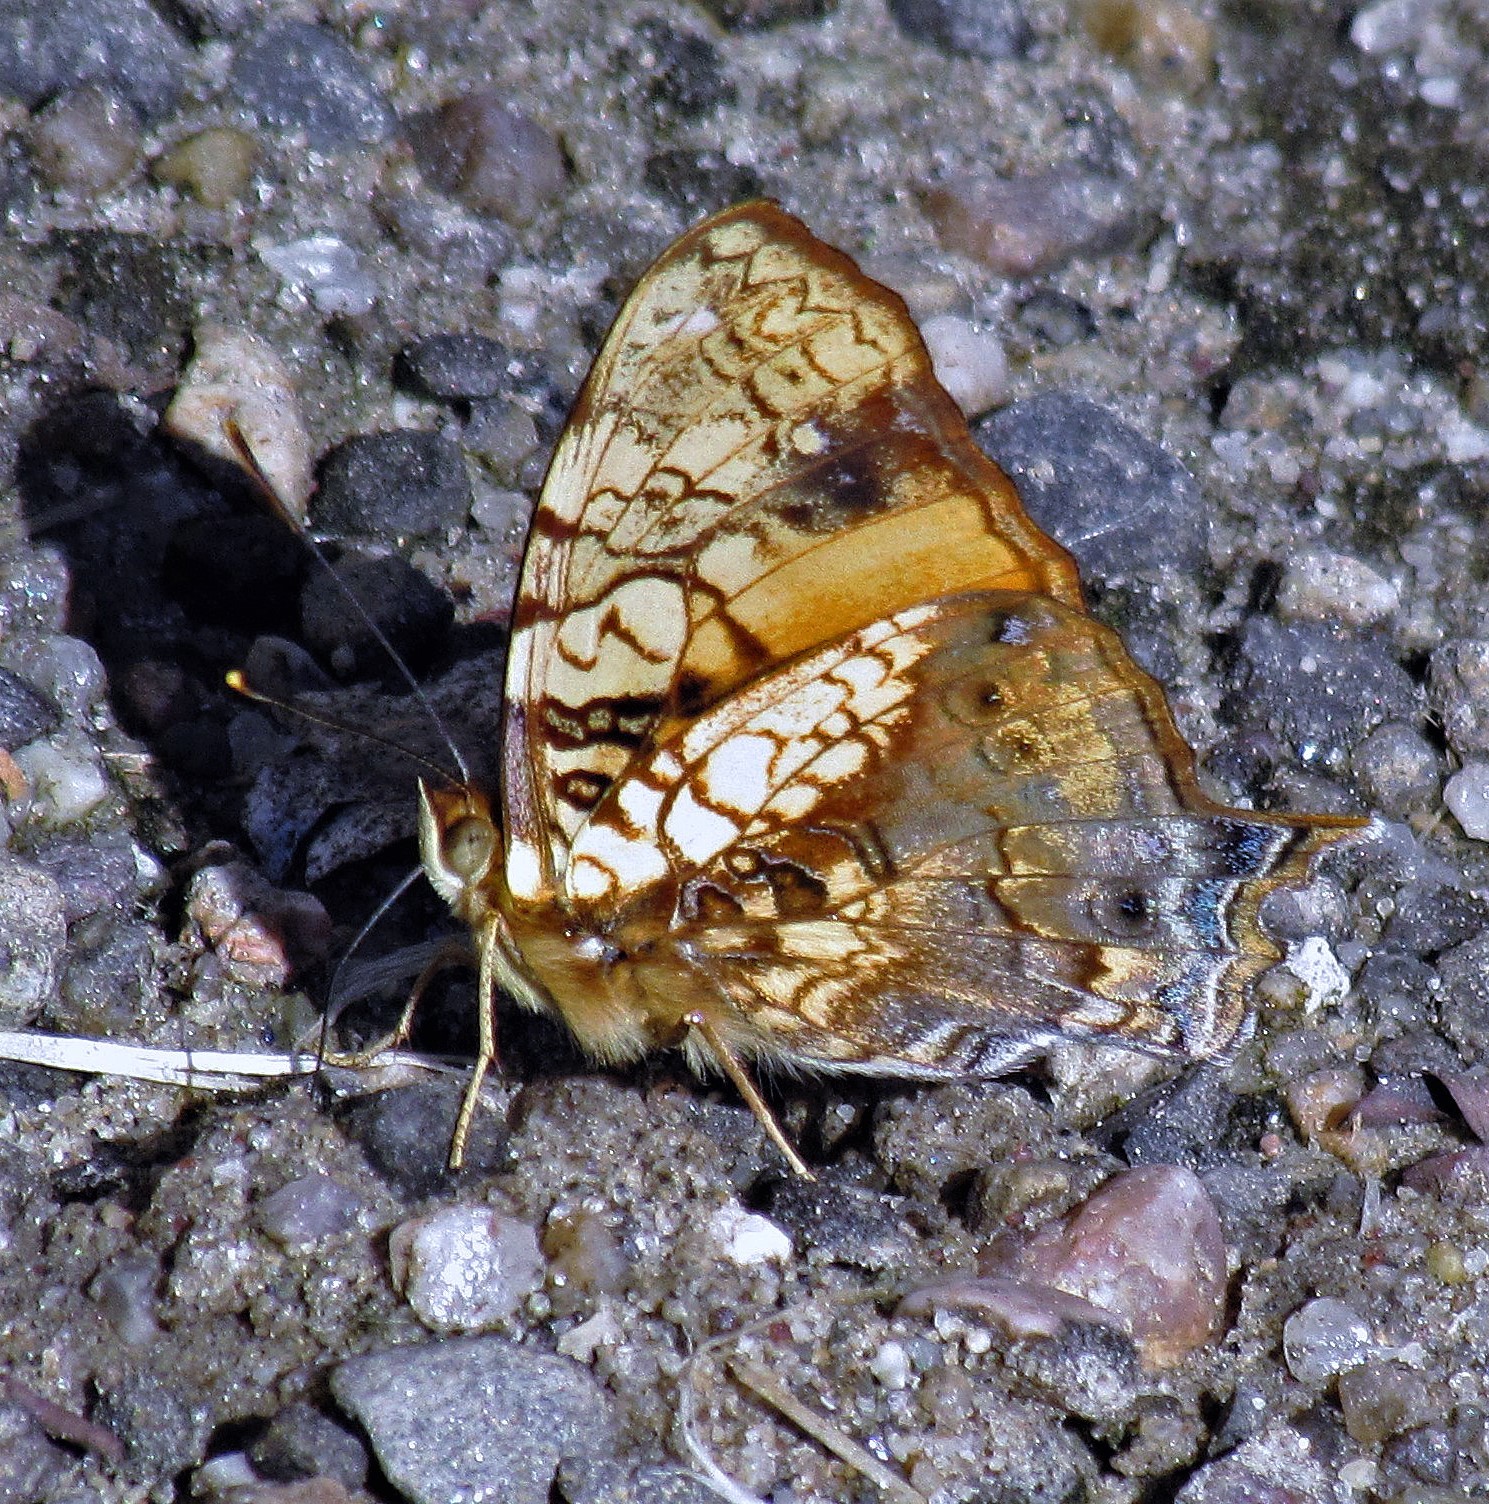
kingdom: Animalia
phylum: Arthropoda
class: Insecta
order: Lepidoptera
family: Nymphalidae
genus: Hypanartia
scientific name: Hypanartia lethe
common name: Orange mapwing
